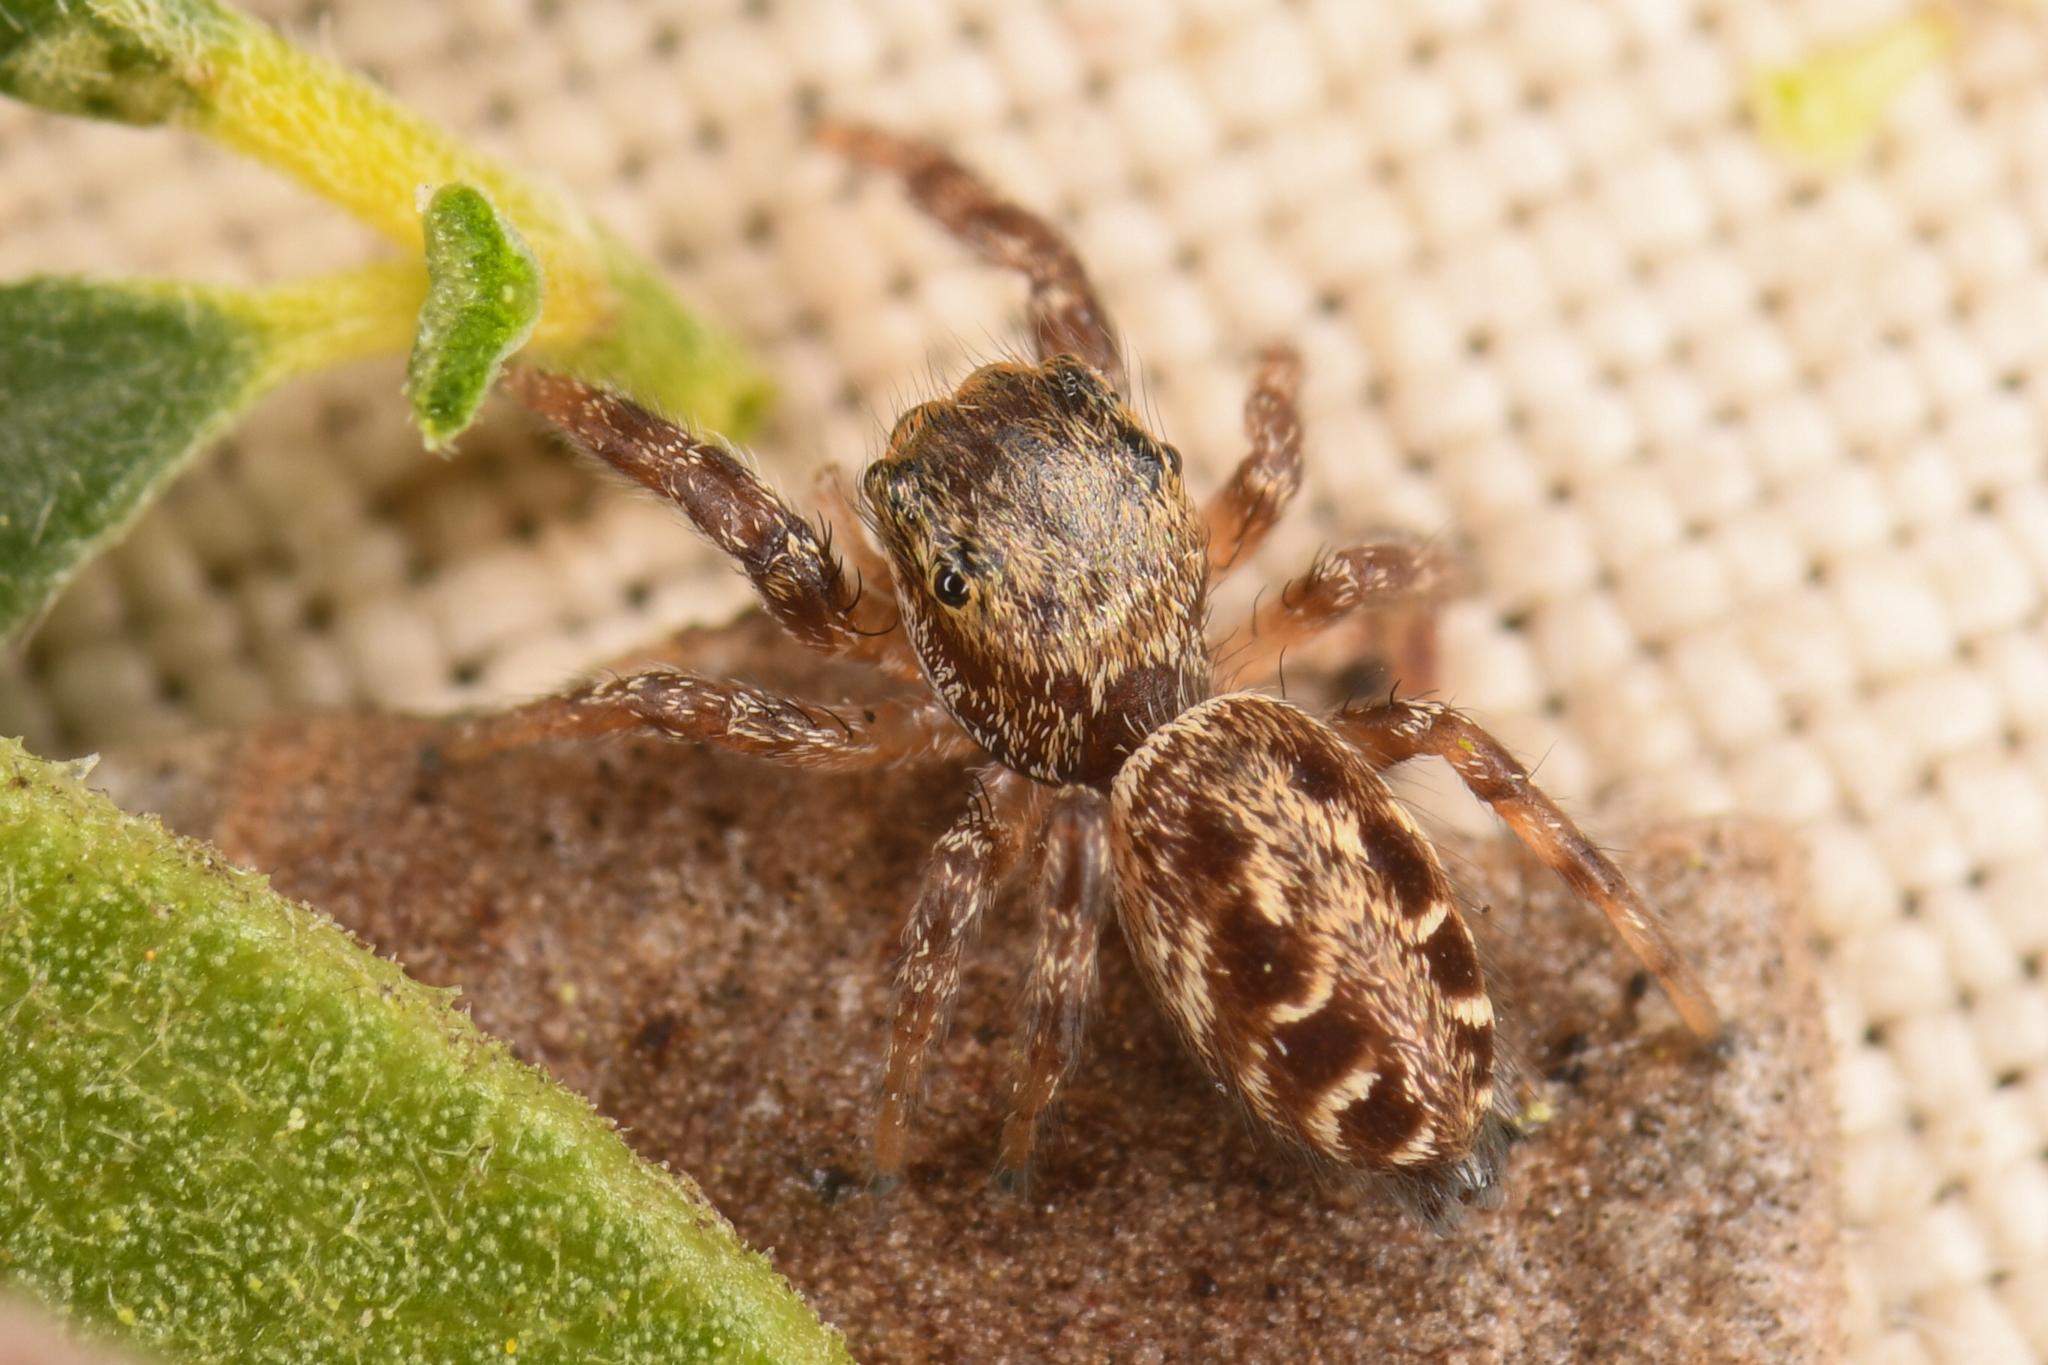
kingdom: Animalia
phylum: Arthropoda
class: Arachnida
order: Araneae
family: Salticidae
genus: Metaphidippus
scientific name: Metaphidippus manni
